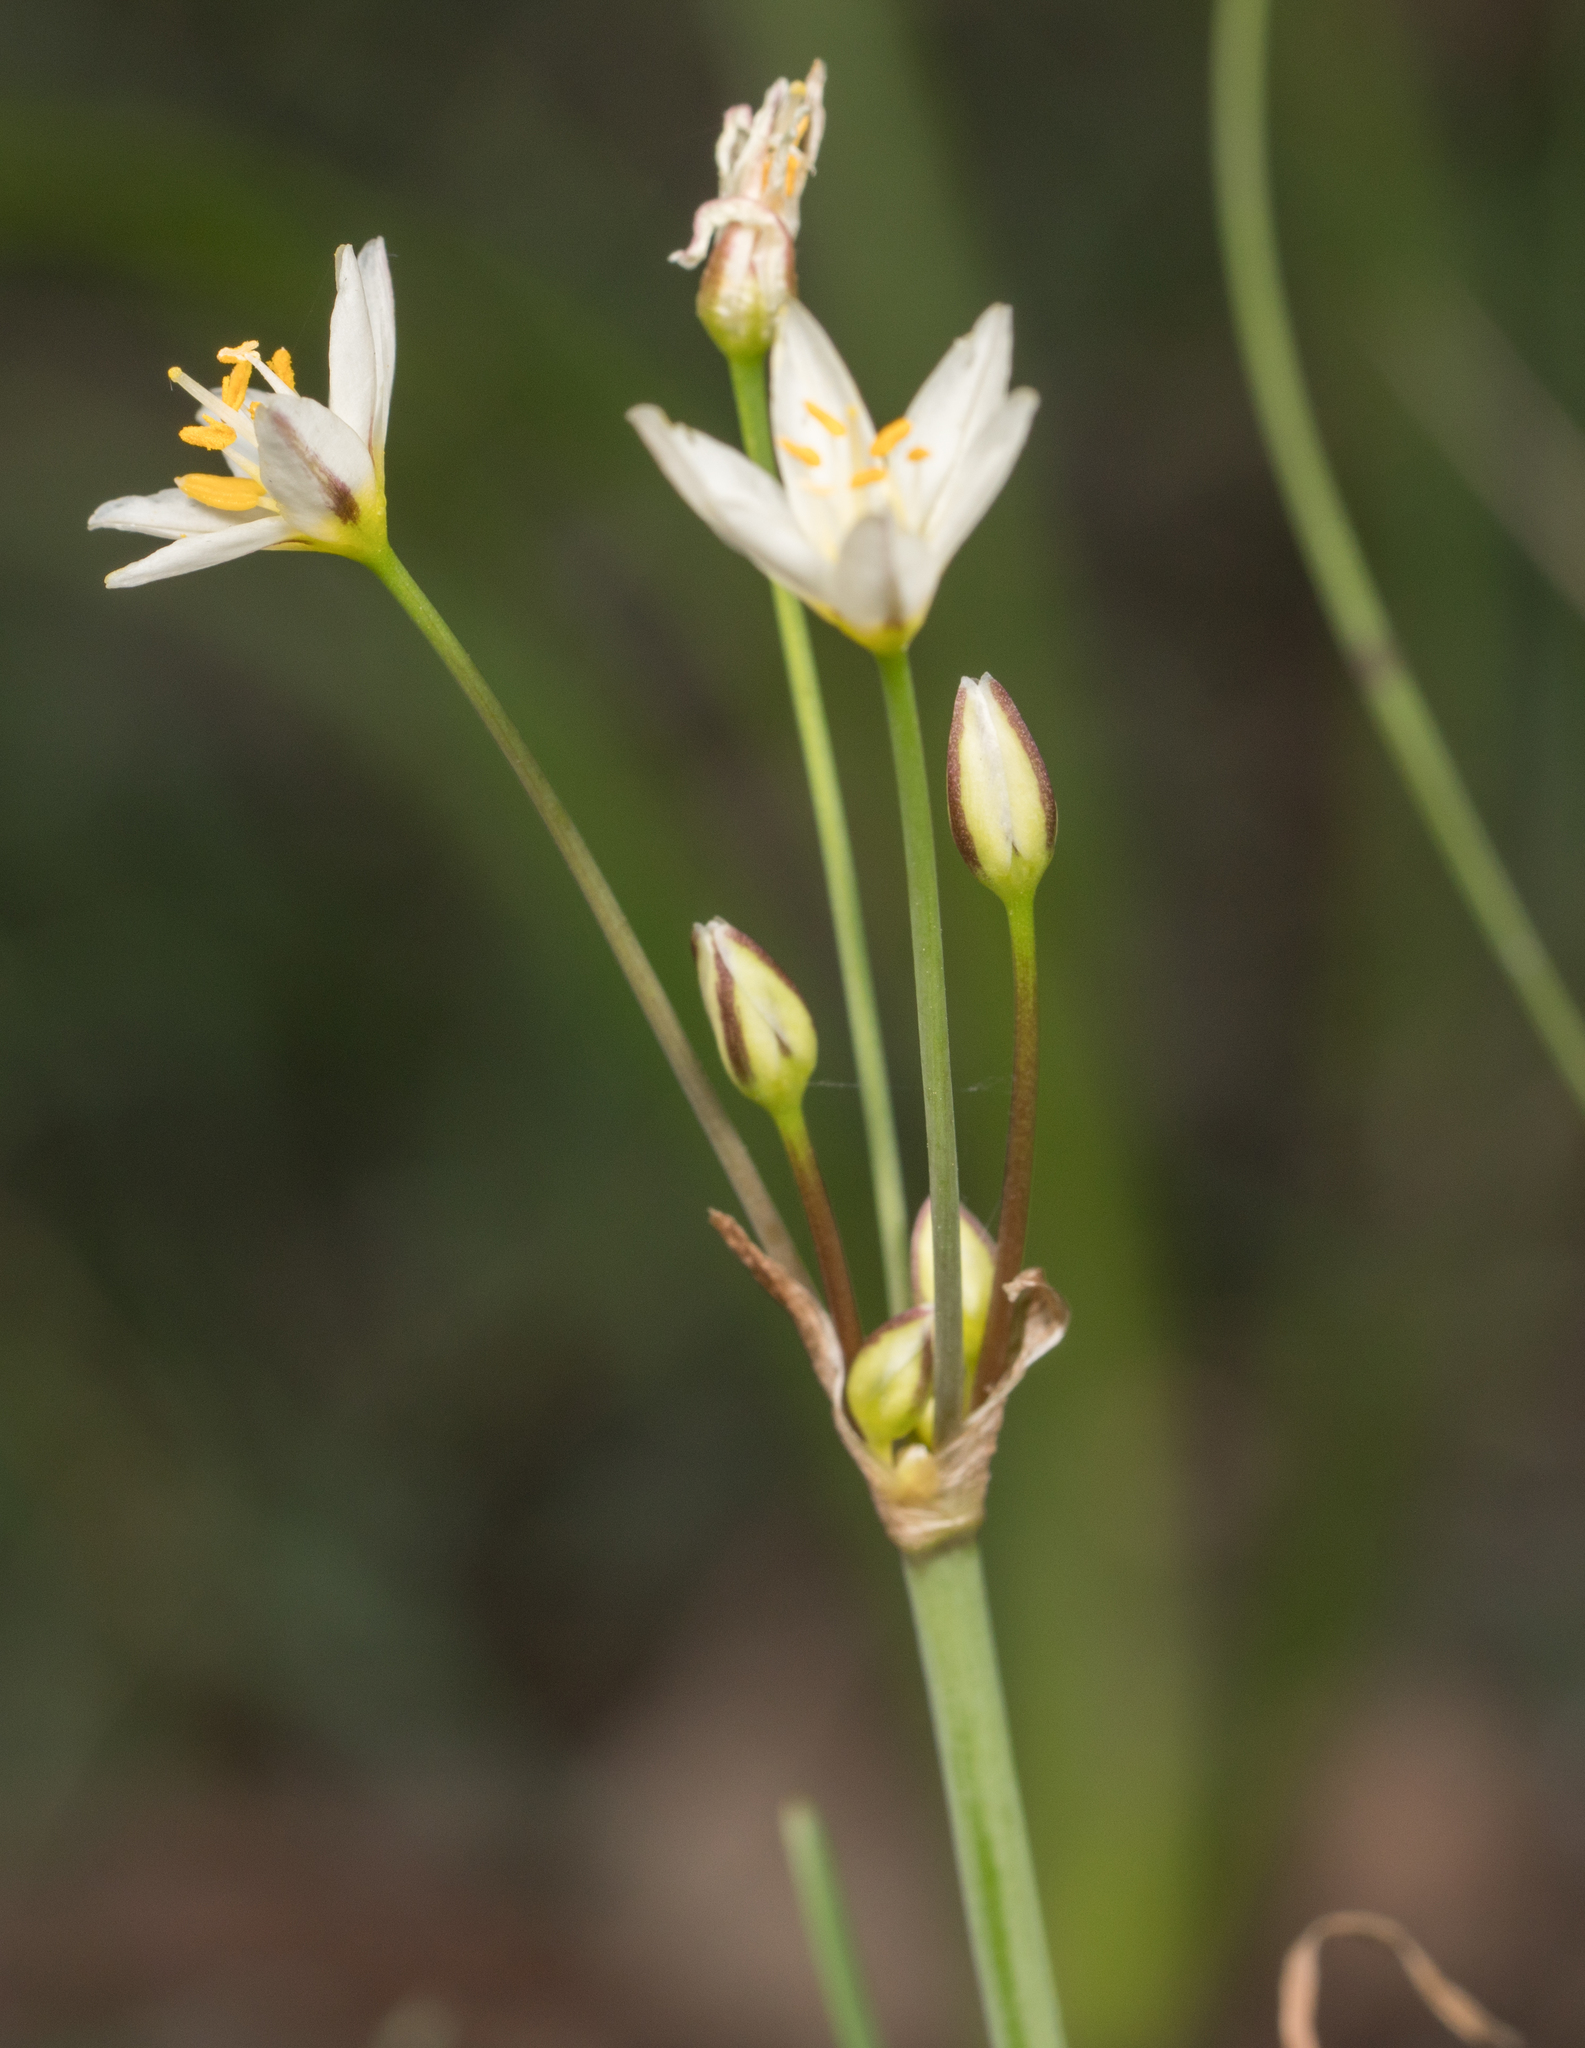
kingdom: Plantae
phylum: Tracheophyta
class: Liliopsida
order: Asparagales
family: Amaryllidaceae
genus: Nothoscordum
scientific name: Nothoscordum bivalve
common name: Crow-poison
